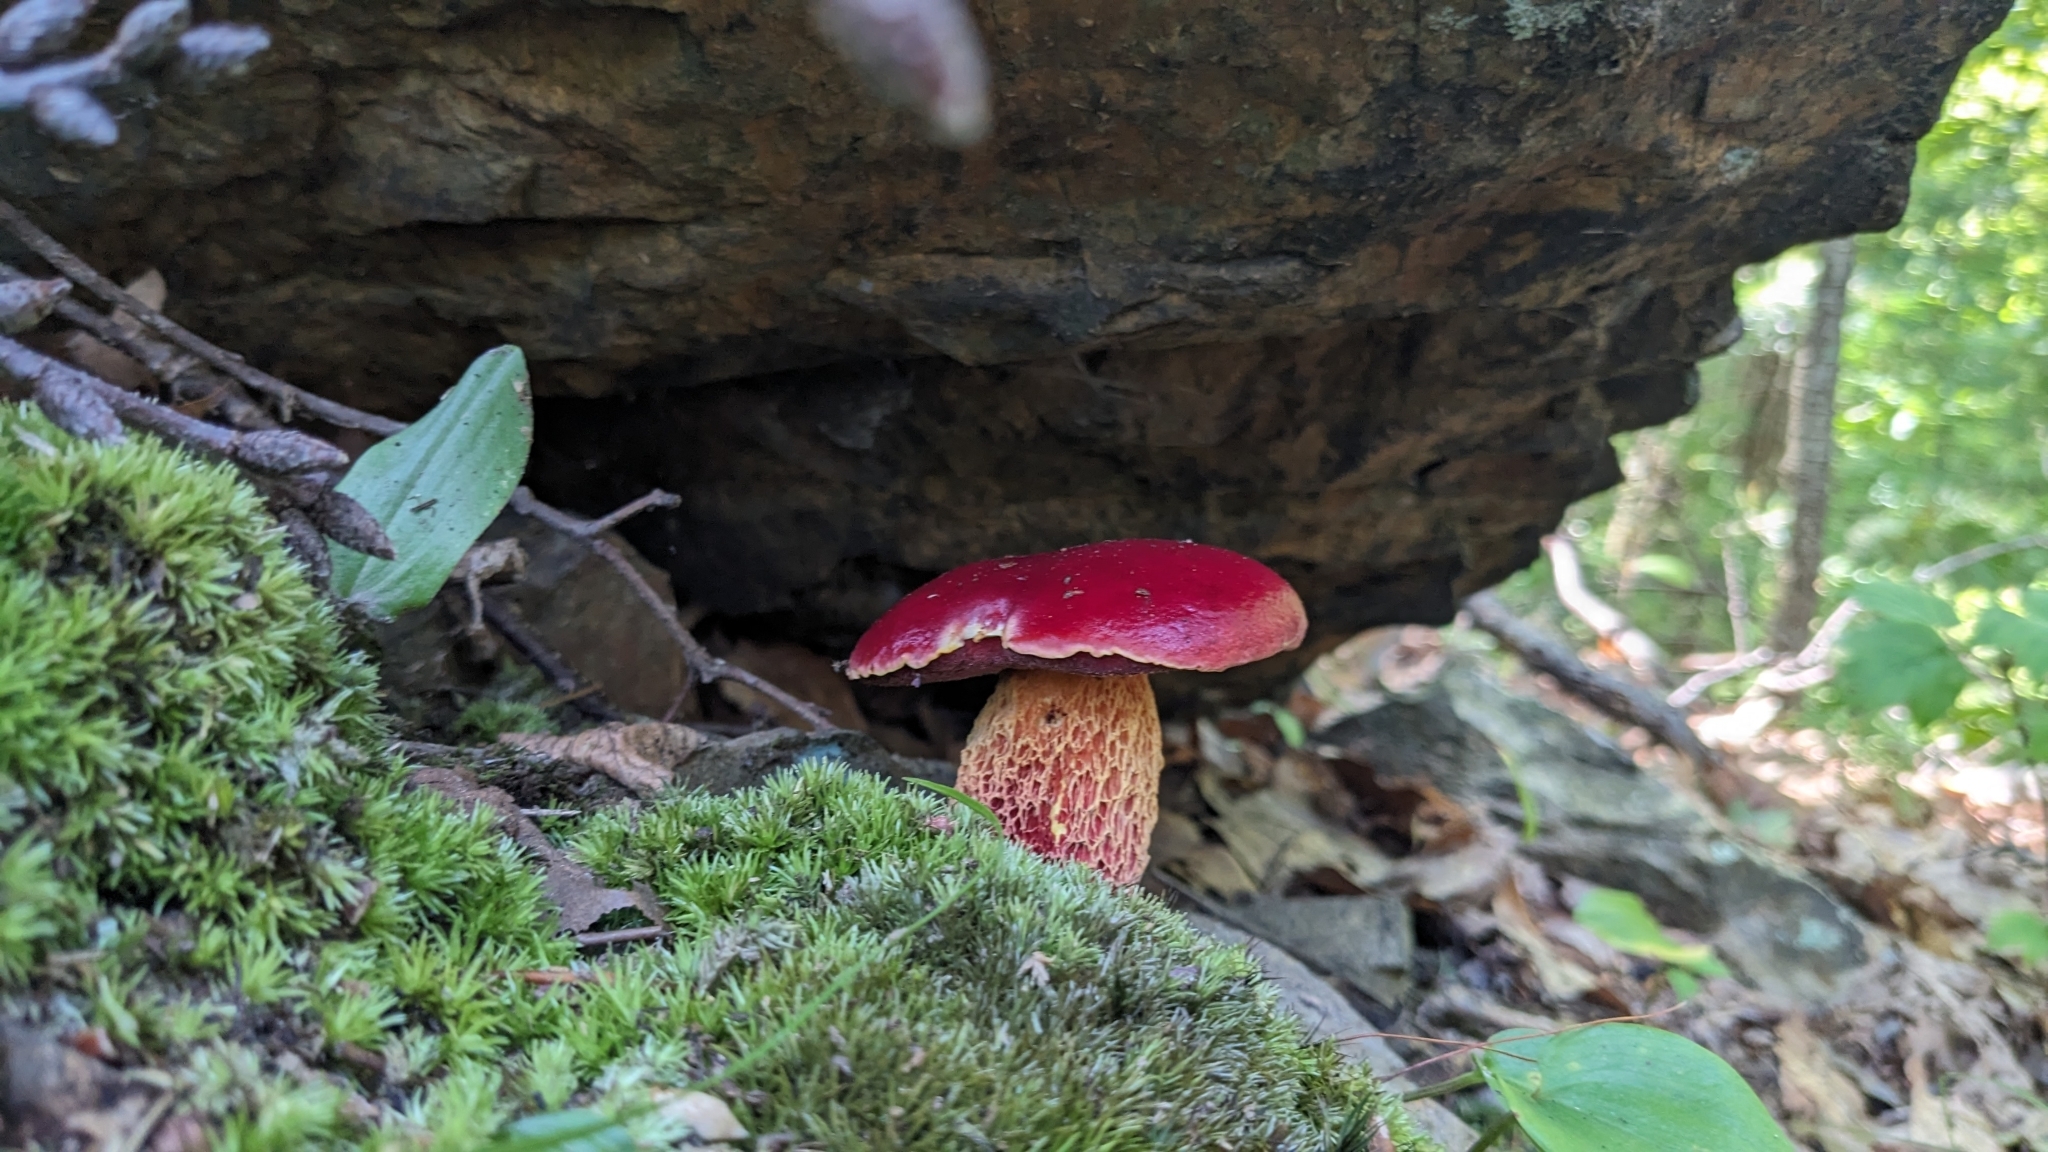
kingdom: Fungi
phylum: Basidiomycota
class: Agaricomycetes
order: Boletales
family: Boletaceae
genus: Butyriboletus
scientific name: Butyriboletus frostii
